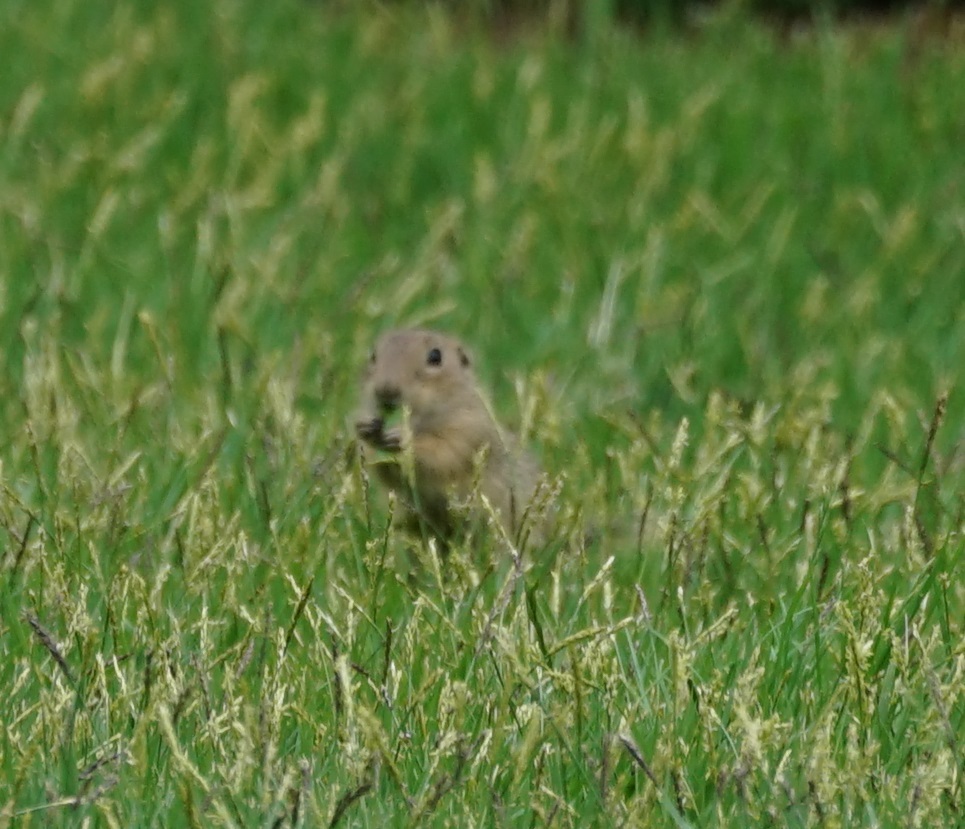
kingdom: Animalia
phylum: Chordata
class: Mammalia
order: Rodentia
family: Sciuridae
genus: Spermophilus
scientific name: Spermophilus citellus
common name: European ground squirrel
